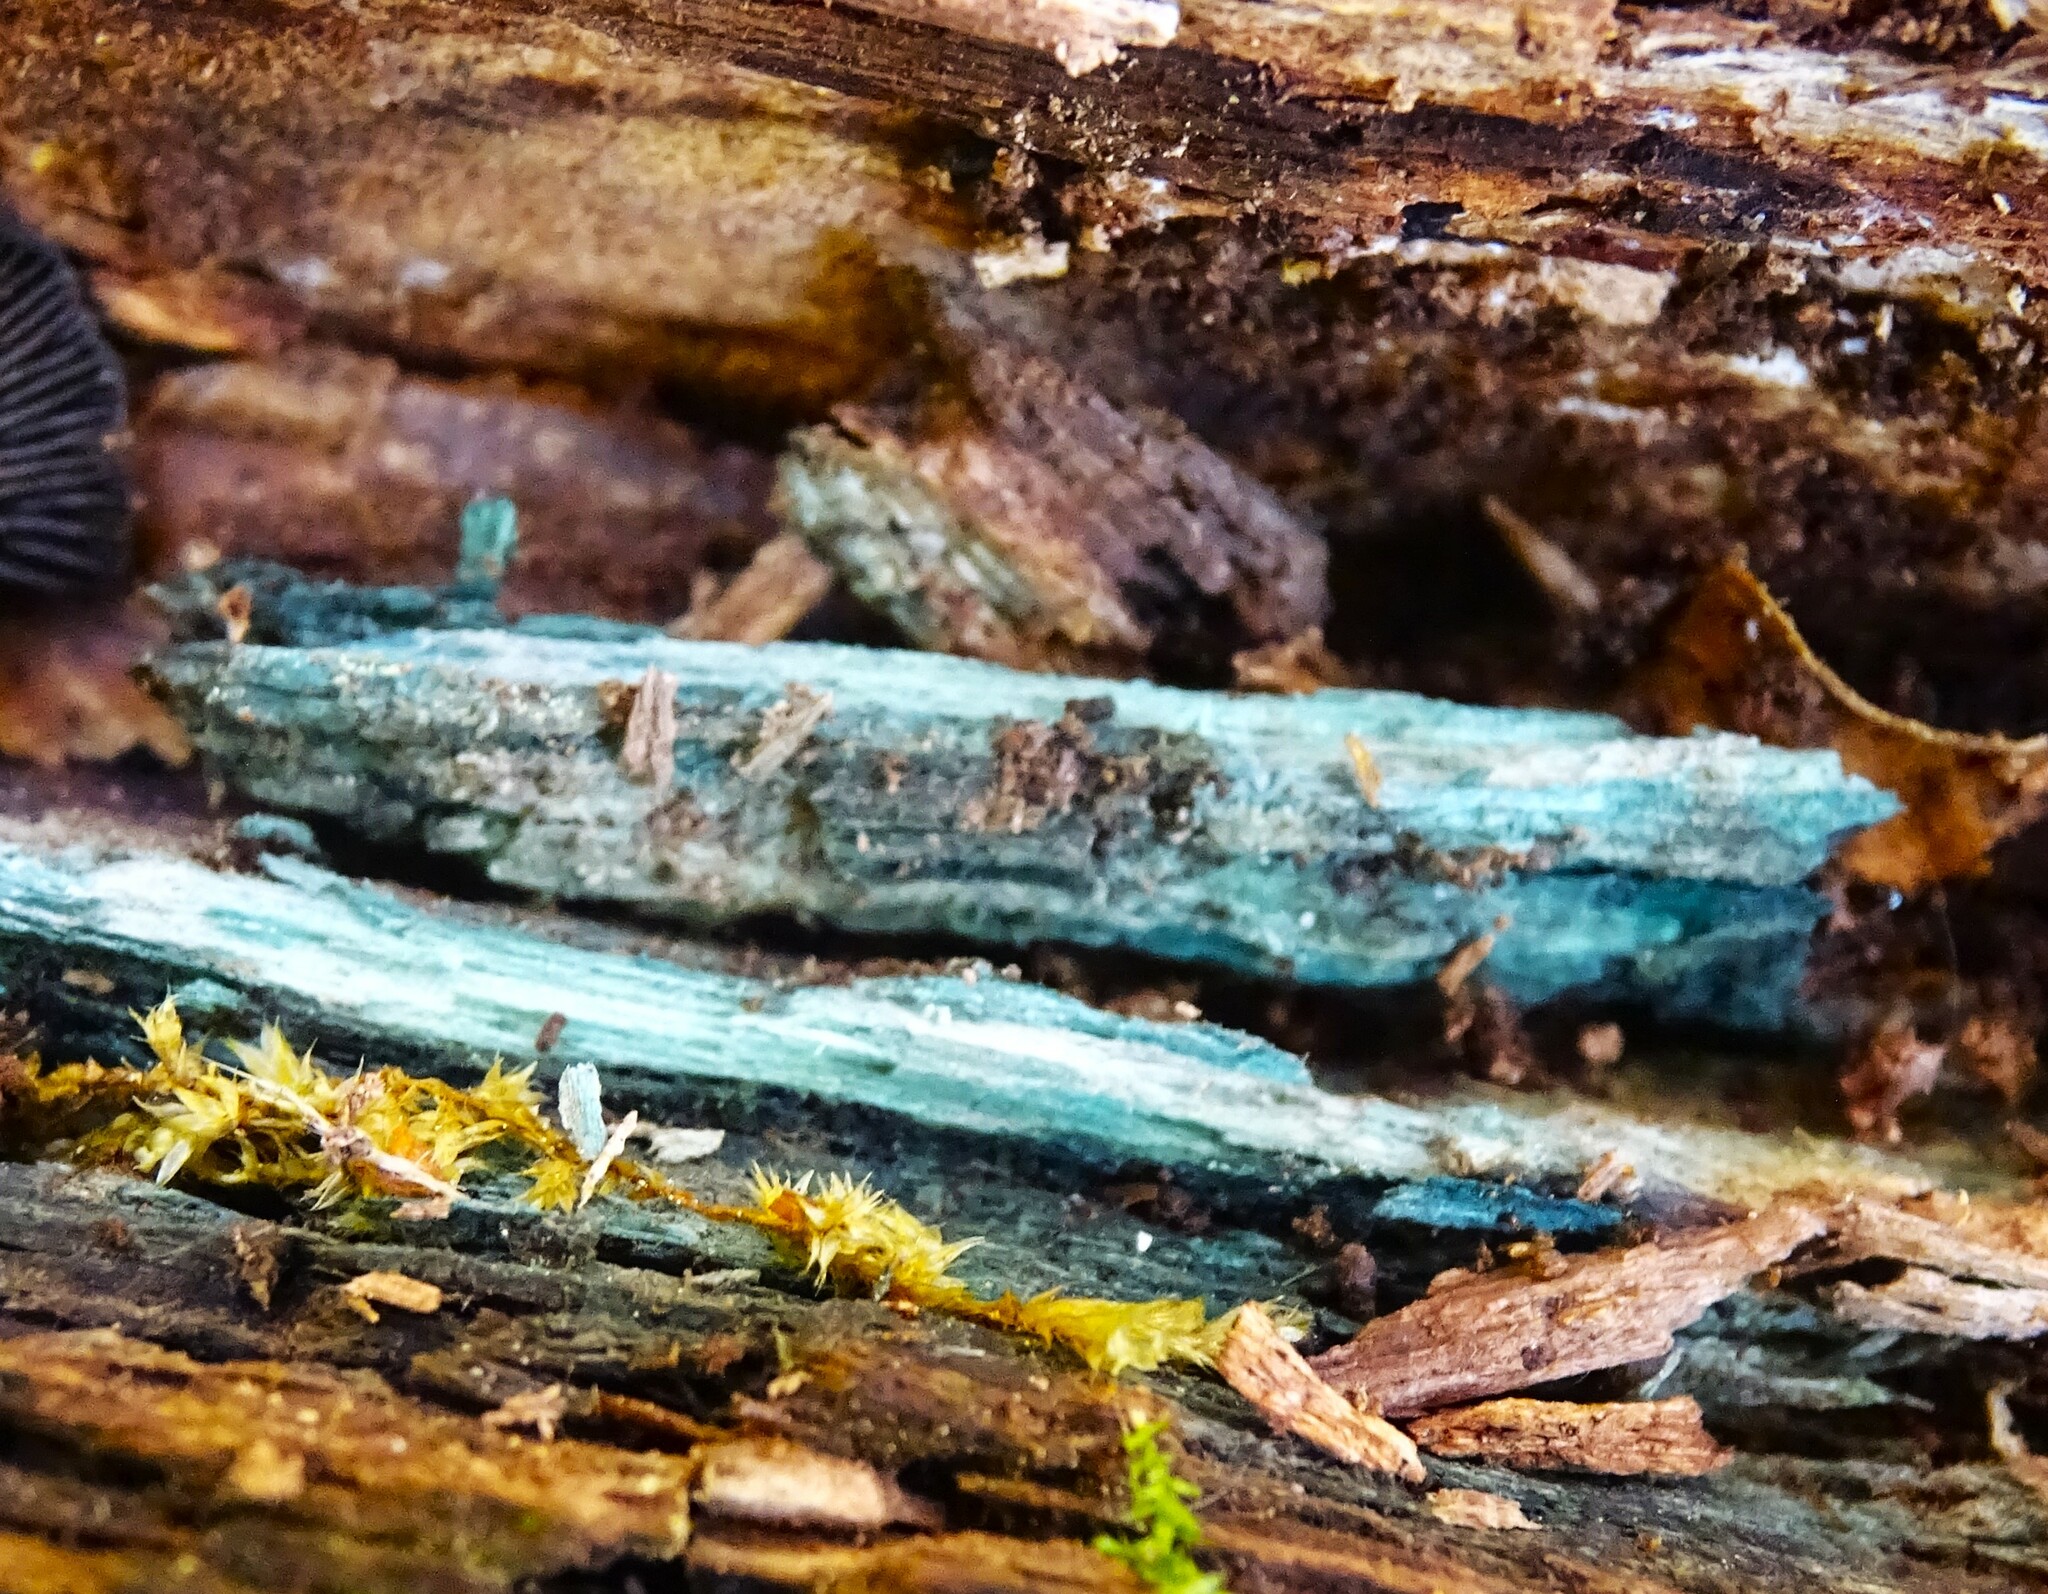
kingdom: Fungi
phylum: Ascomycota
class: Leotiomycetes
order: Helotiales
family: Chlorociboriaceae
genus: Chlorociboria
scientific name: Chlorociboria aeruginascens
